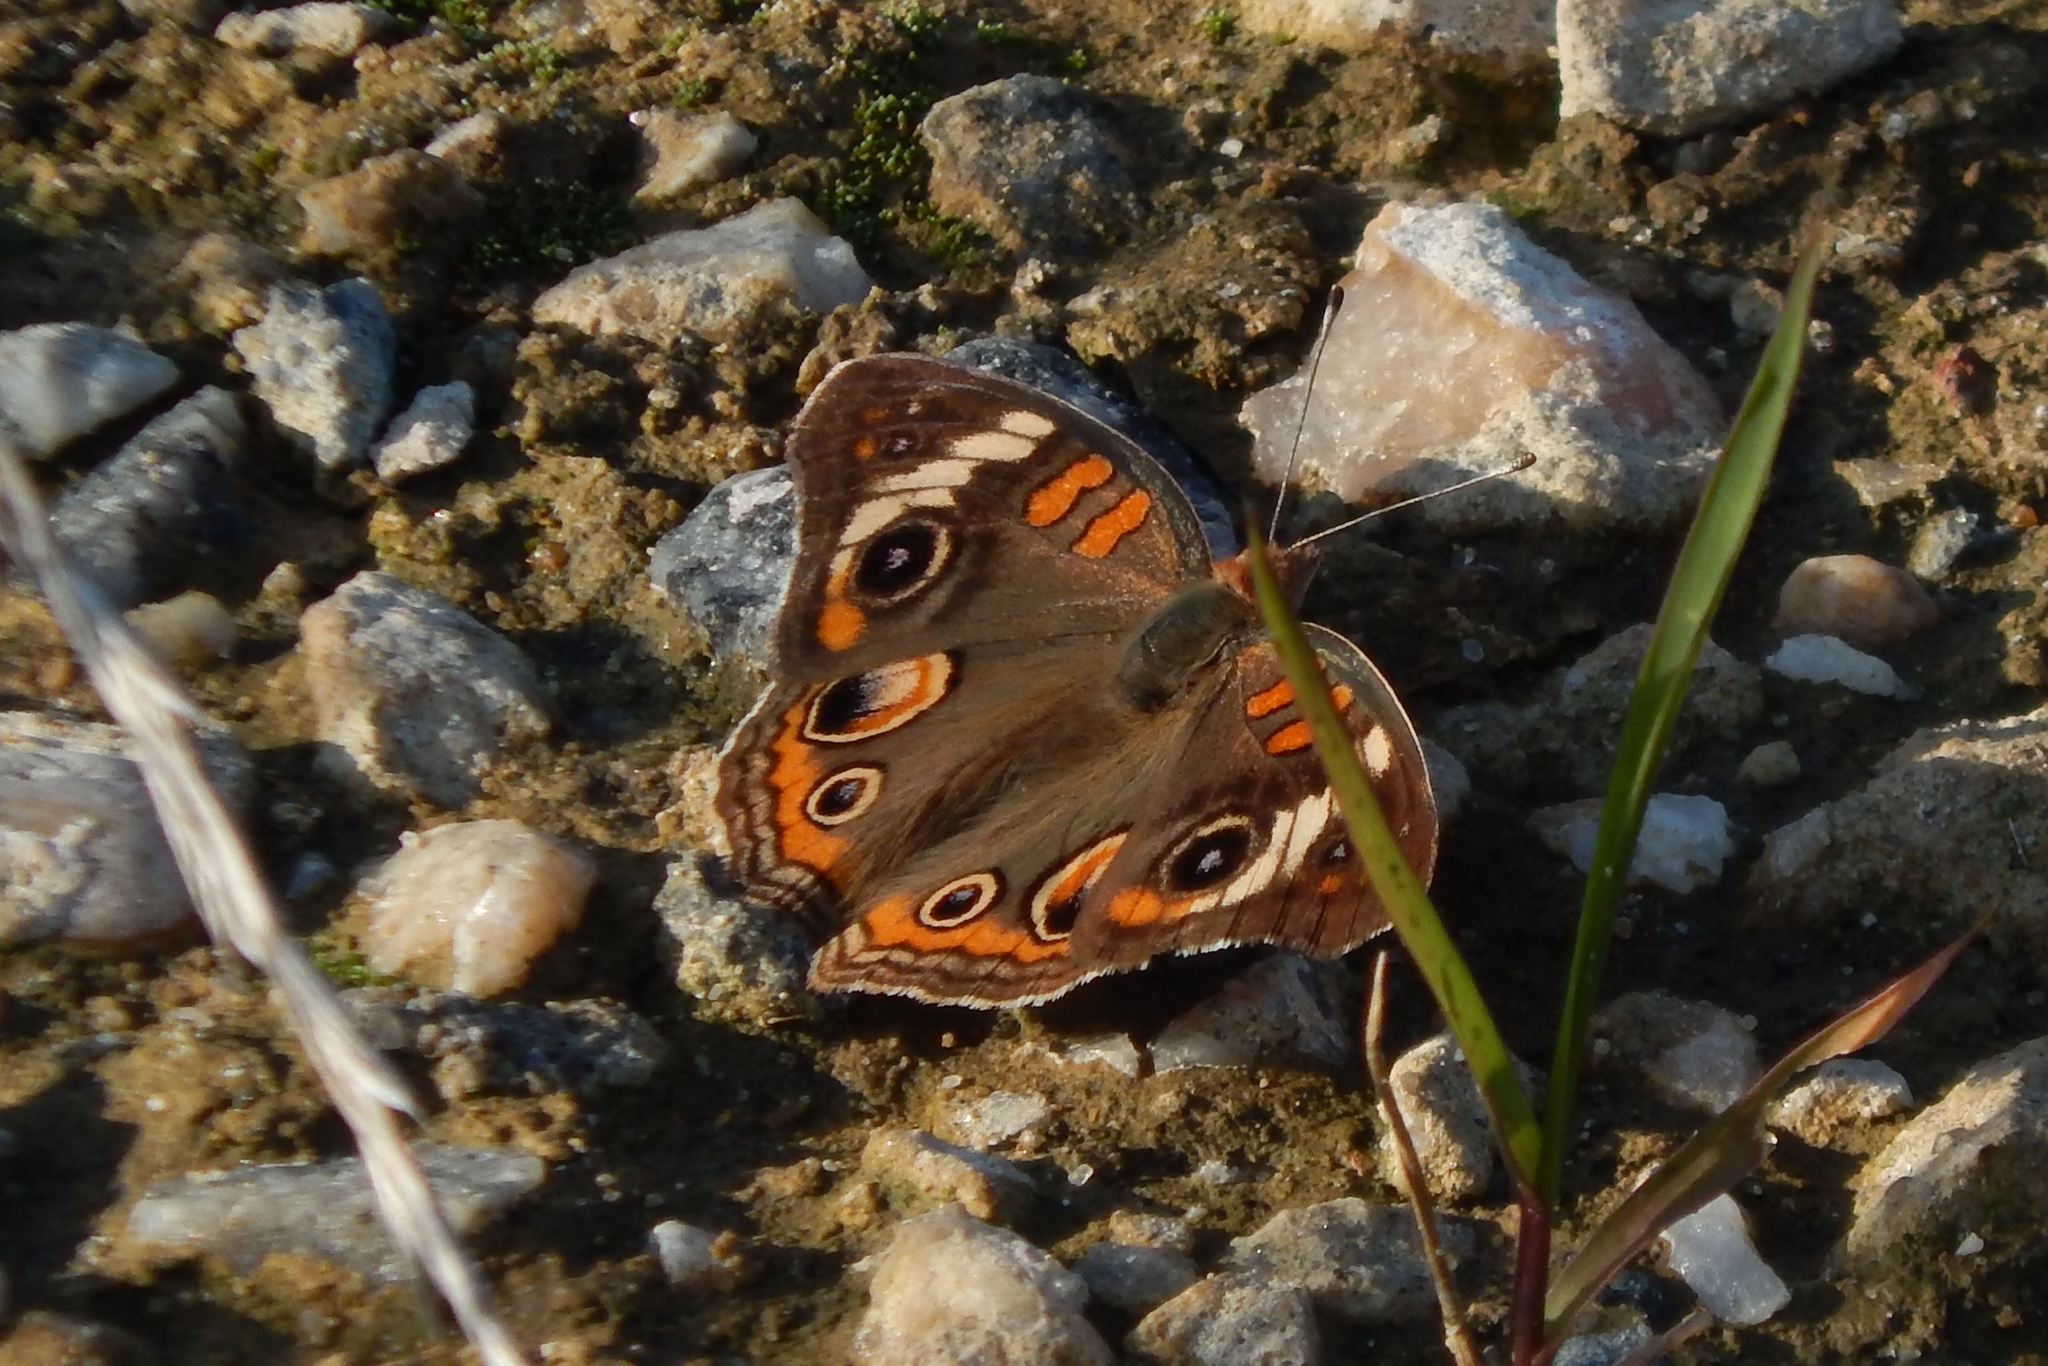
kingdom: Animalia
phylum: Arthropoda
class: Insecta
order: Lepidoptera
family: Nymphalidae
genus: Junonia
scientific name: Junonia coenia
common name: Common buckeye
